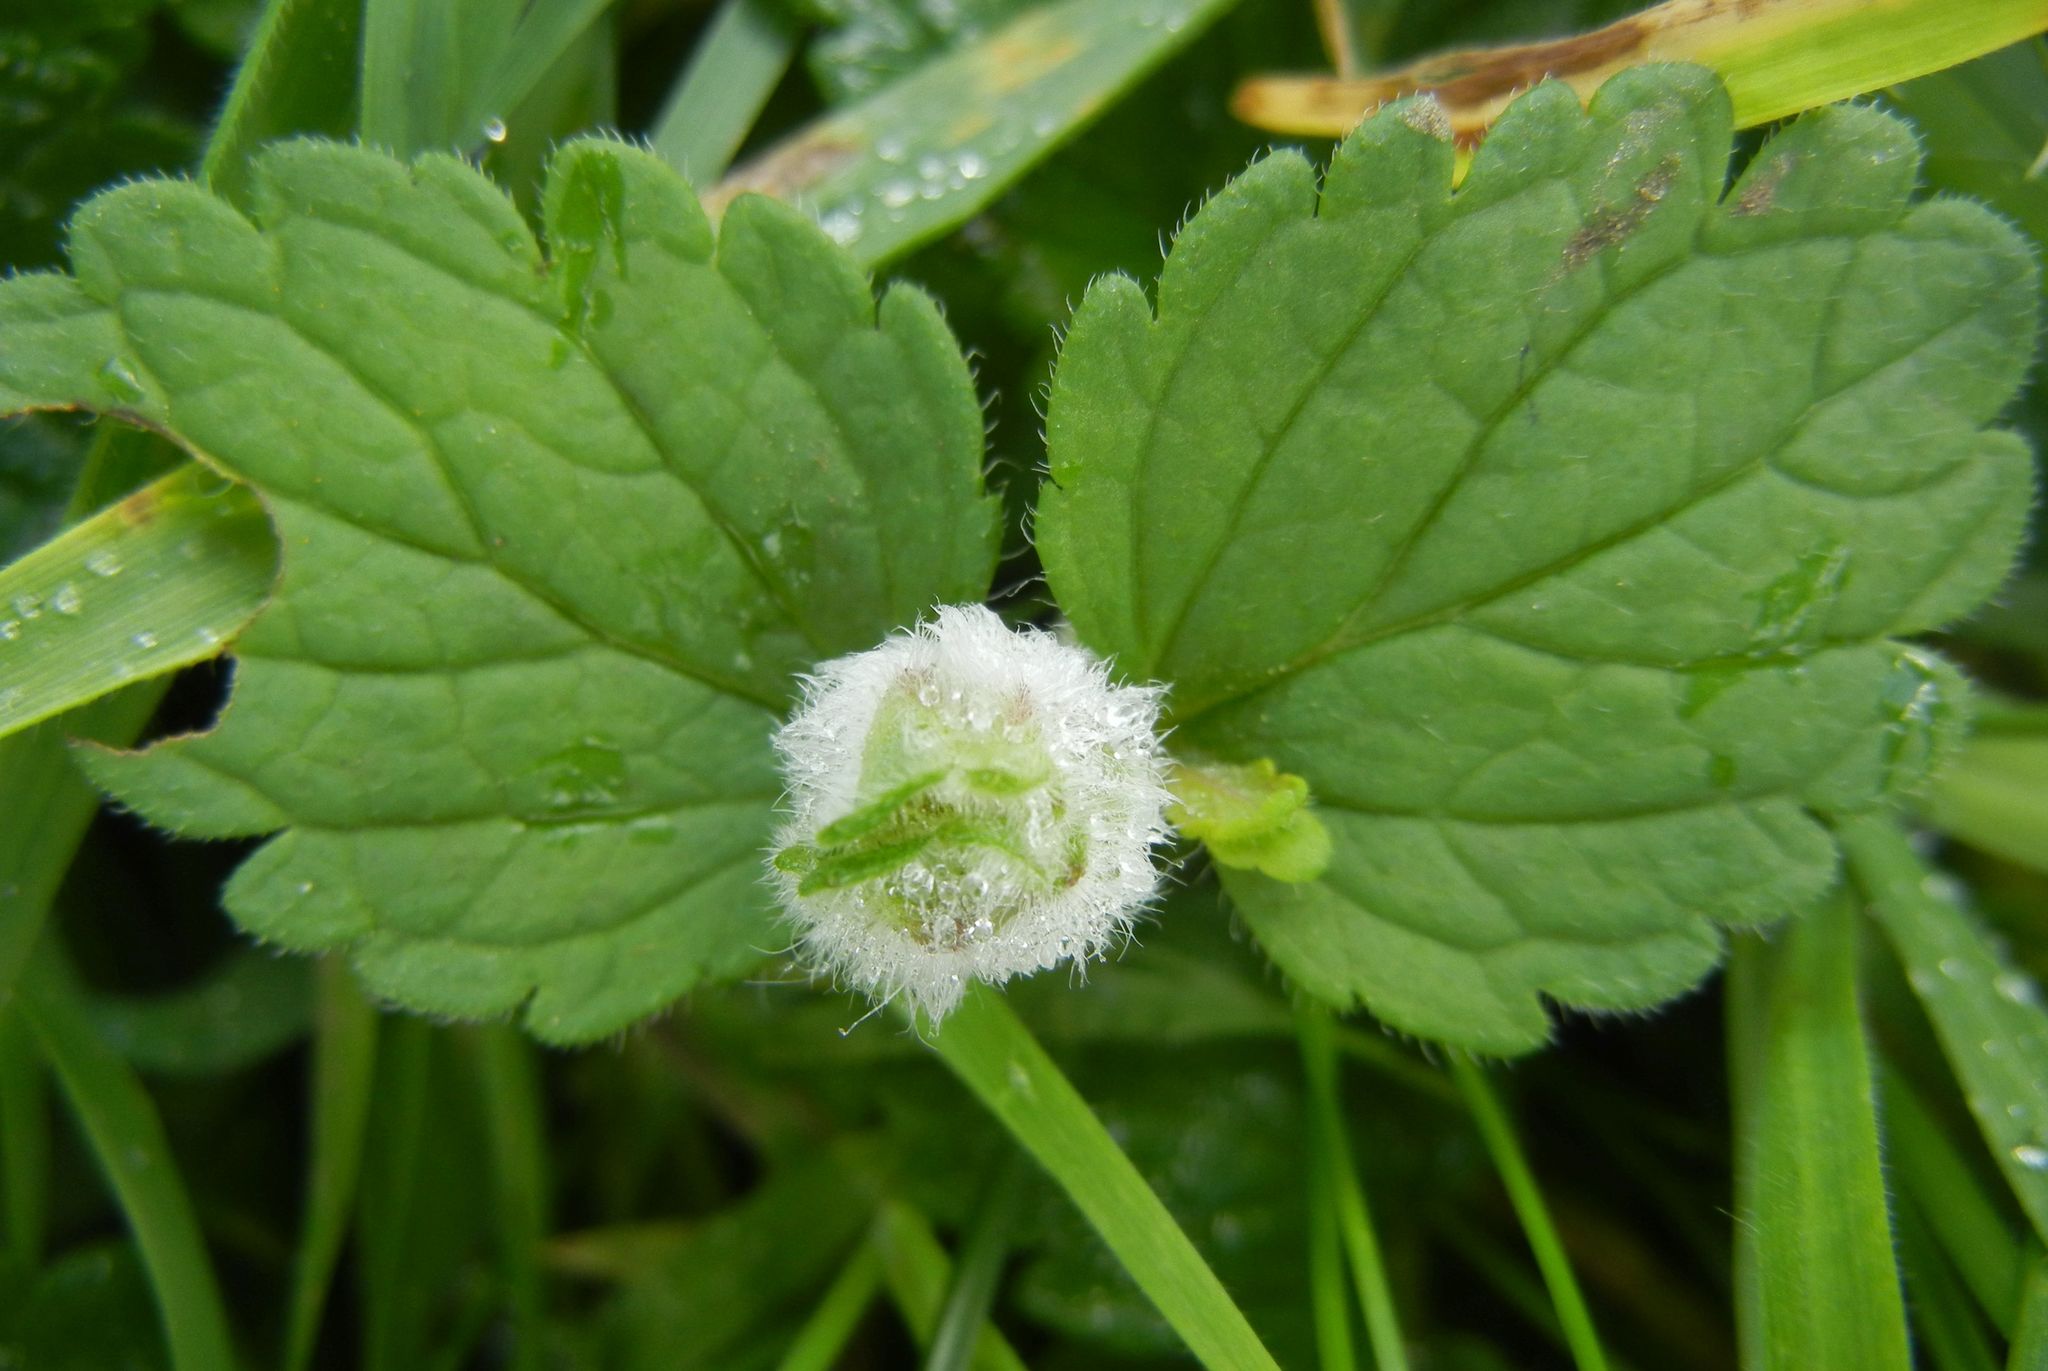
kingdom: Animalia
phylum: Arthropoda
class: Insecta
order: Diptera
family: Cecidomyiidae
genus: Jaapiella
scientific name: Jaapiella veronicae
